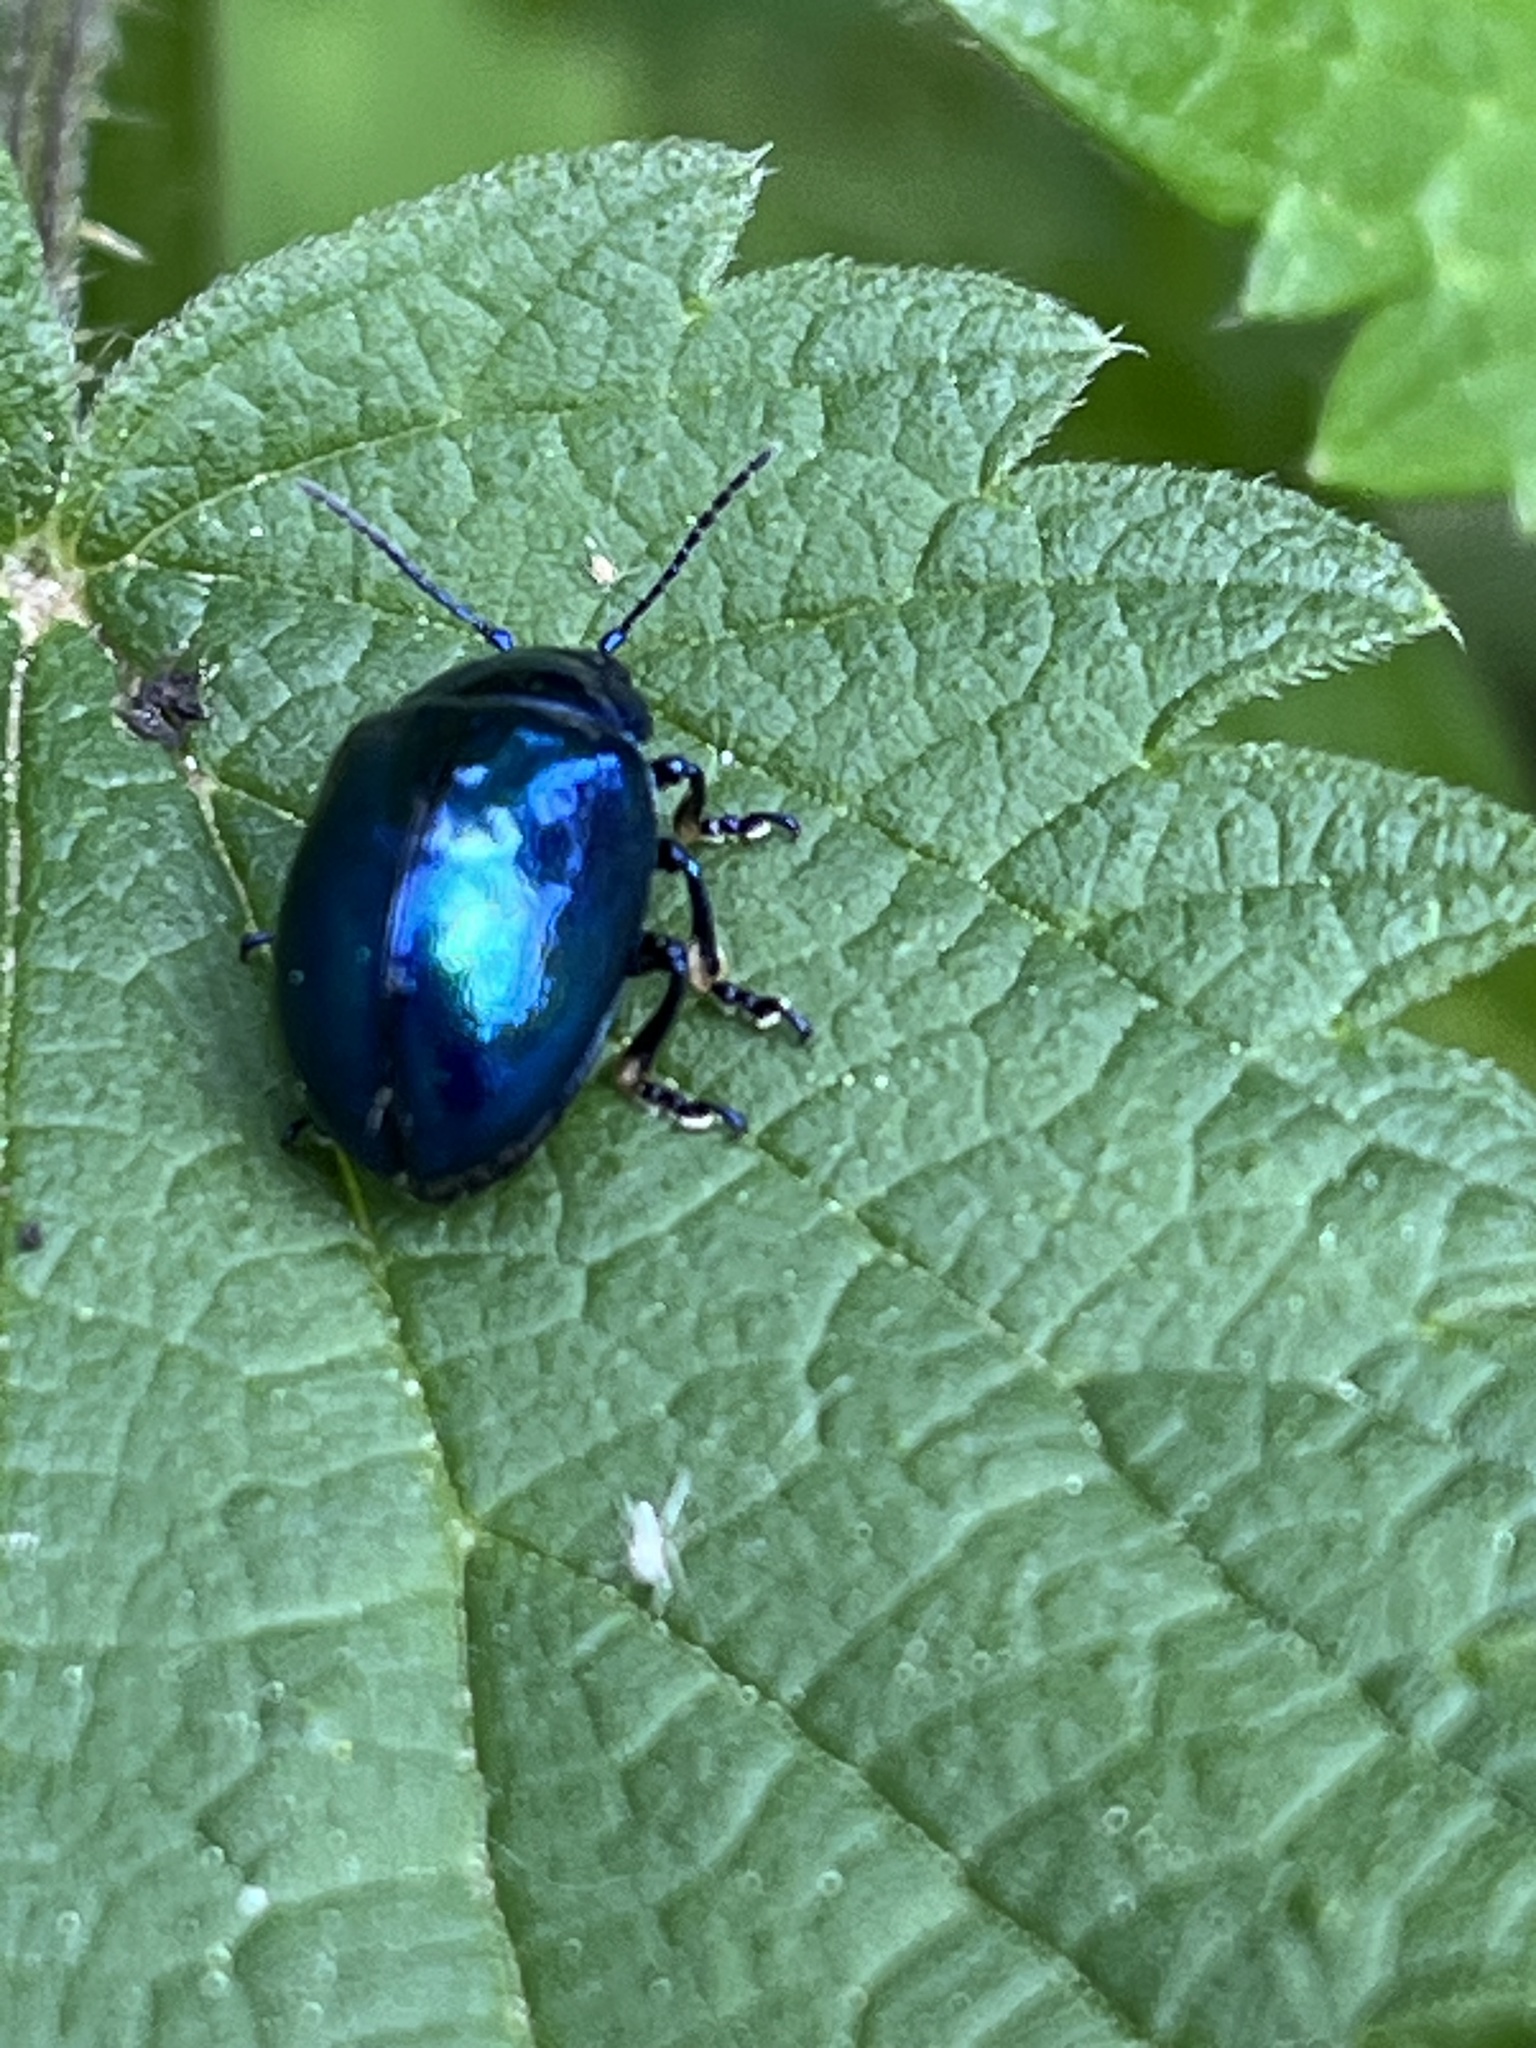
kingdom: Animalia
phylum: Arthropoda
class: Insecta
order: Coleoptera
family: Chrysomelidae
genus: Chrysolina
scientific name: Chrysolina coerulans
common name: Blue mint beetle
